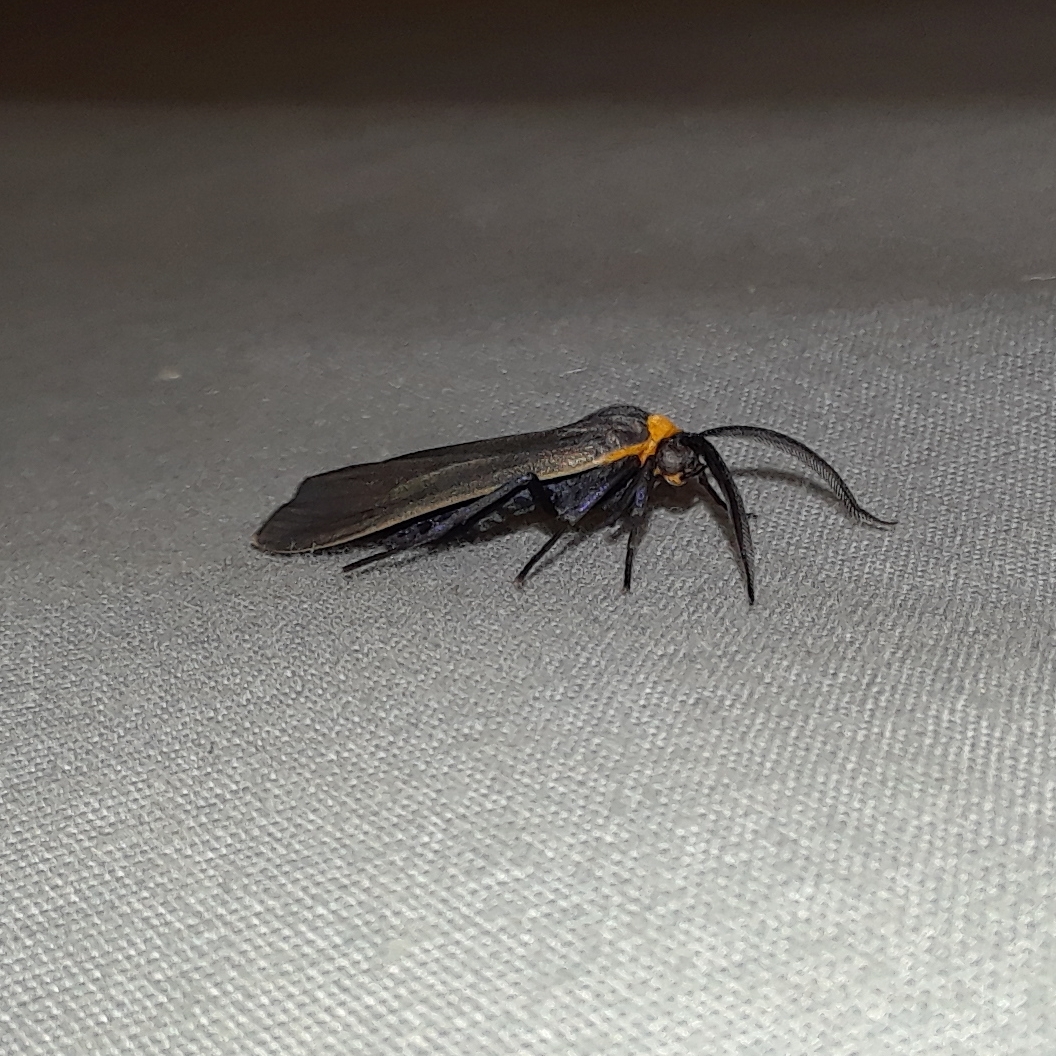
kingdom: Animalia
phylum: Arthropoda
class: Insecta
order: Lepidoptera
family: Erebidae
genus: Cisseps
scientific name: Cisseps fulvicollis
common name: Yellow-collared scape moth
